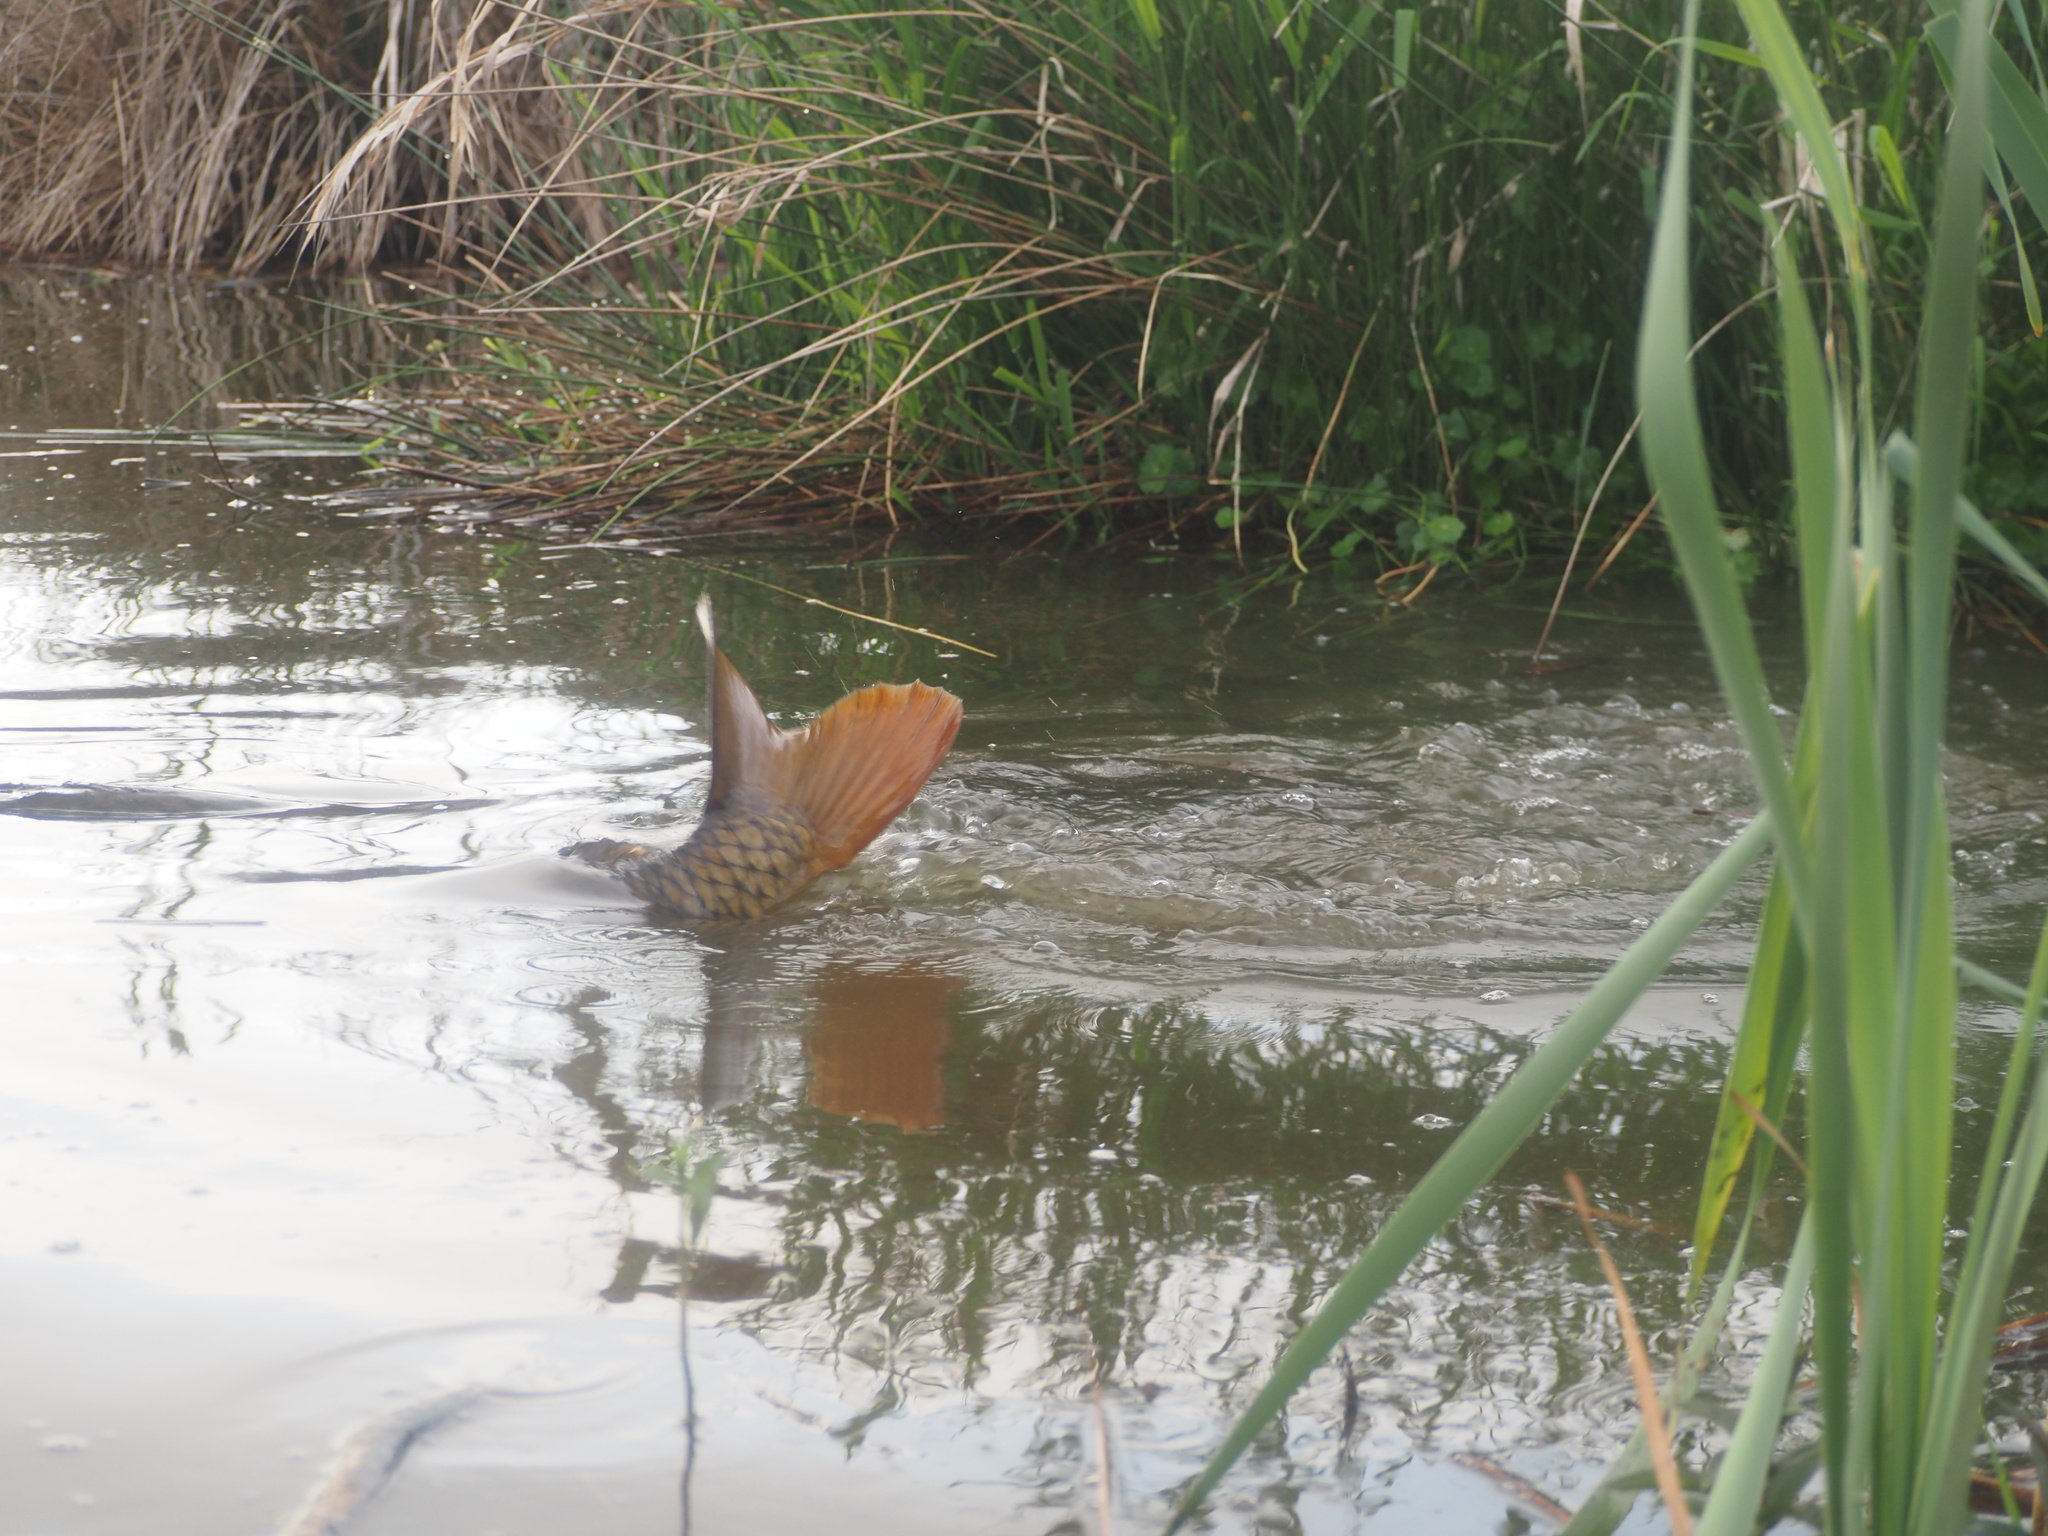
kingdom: Animalia
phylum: Chordata
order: Cypriniformes
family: Cyprinidae
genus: Cyprinus
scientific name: Cyprinus carpio
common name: Common carp
